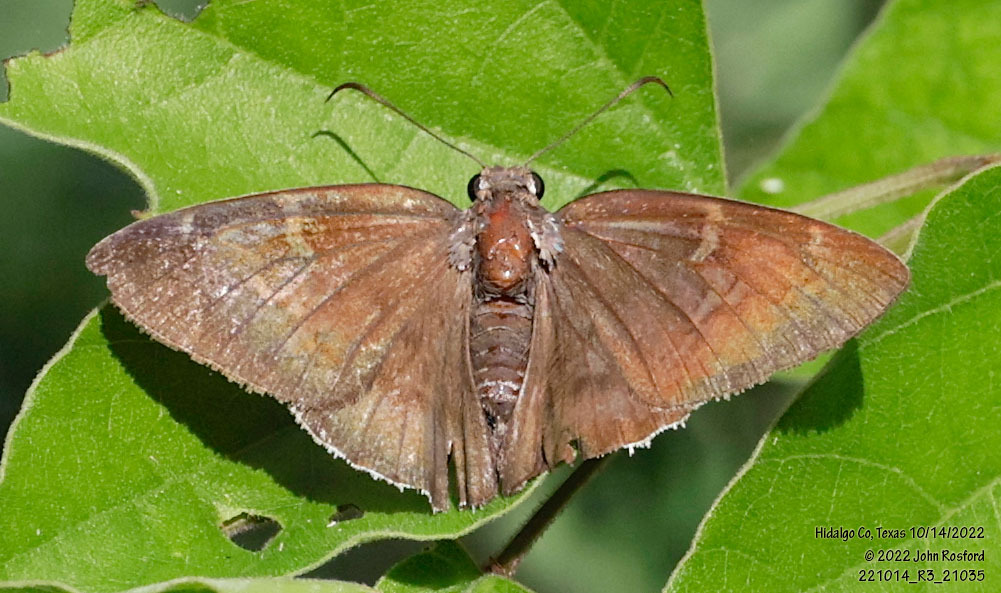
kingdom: Animalia
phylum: Arthropoda
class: Insecta
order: Lepidoptera
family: Hesperiidae
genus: Achalarus
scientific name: Achalarus Murgaria albociliatus
